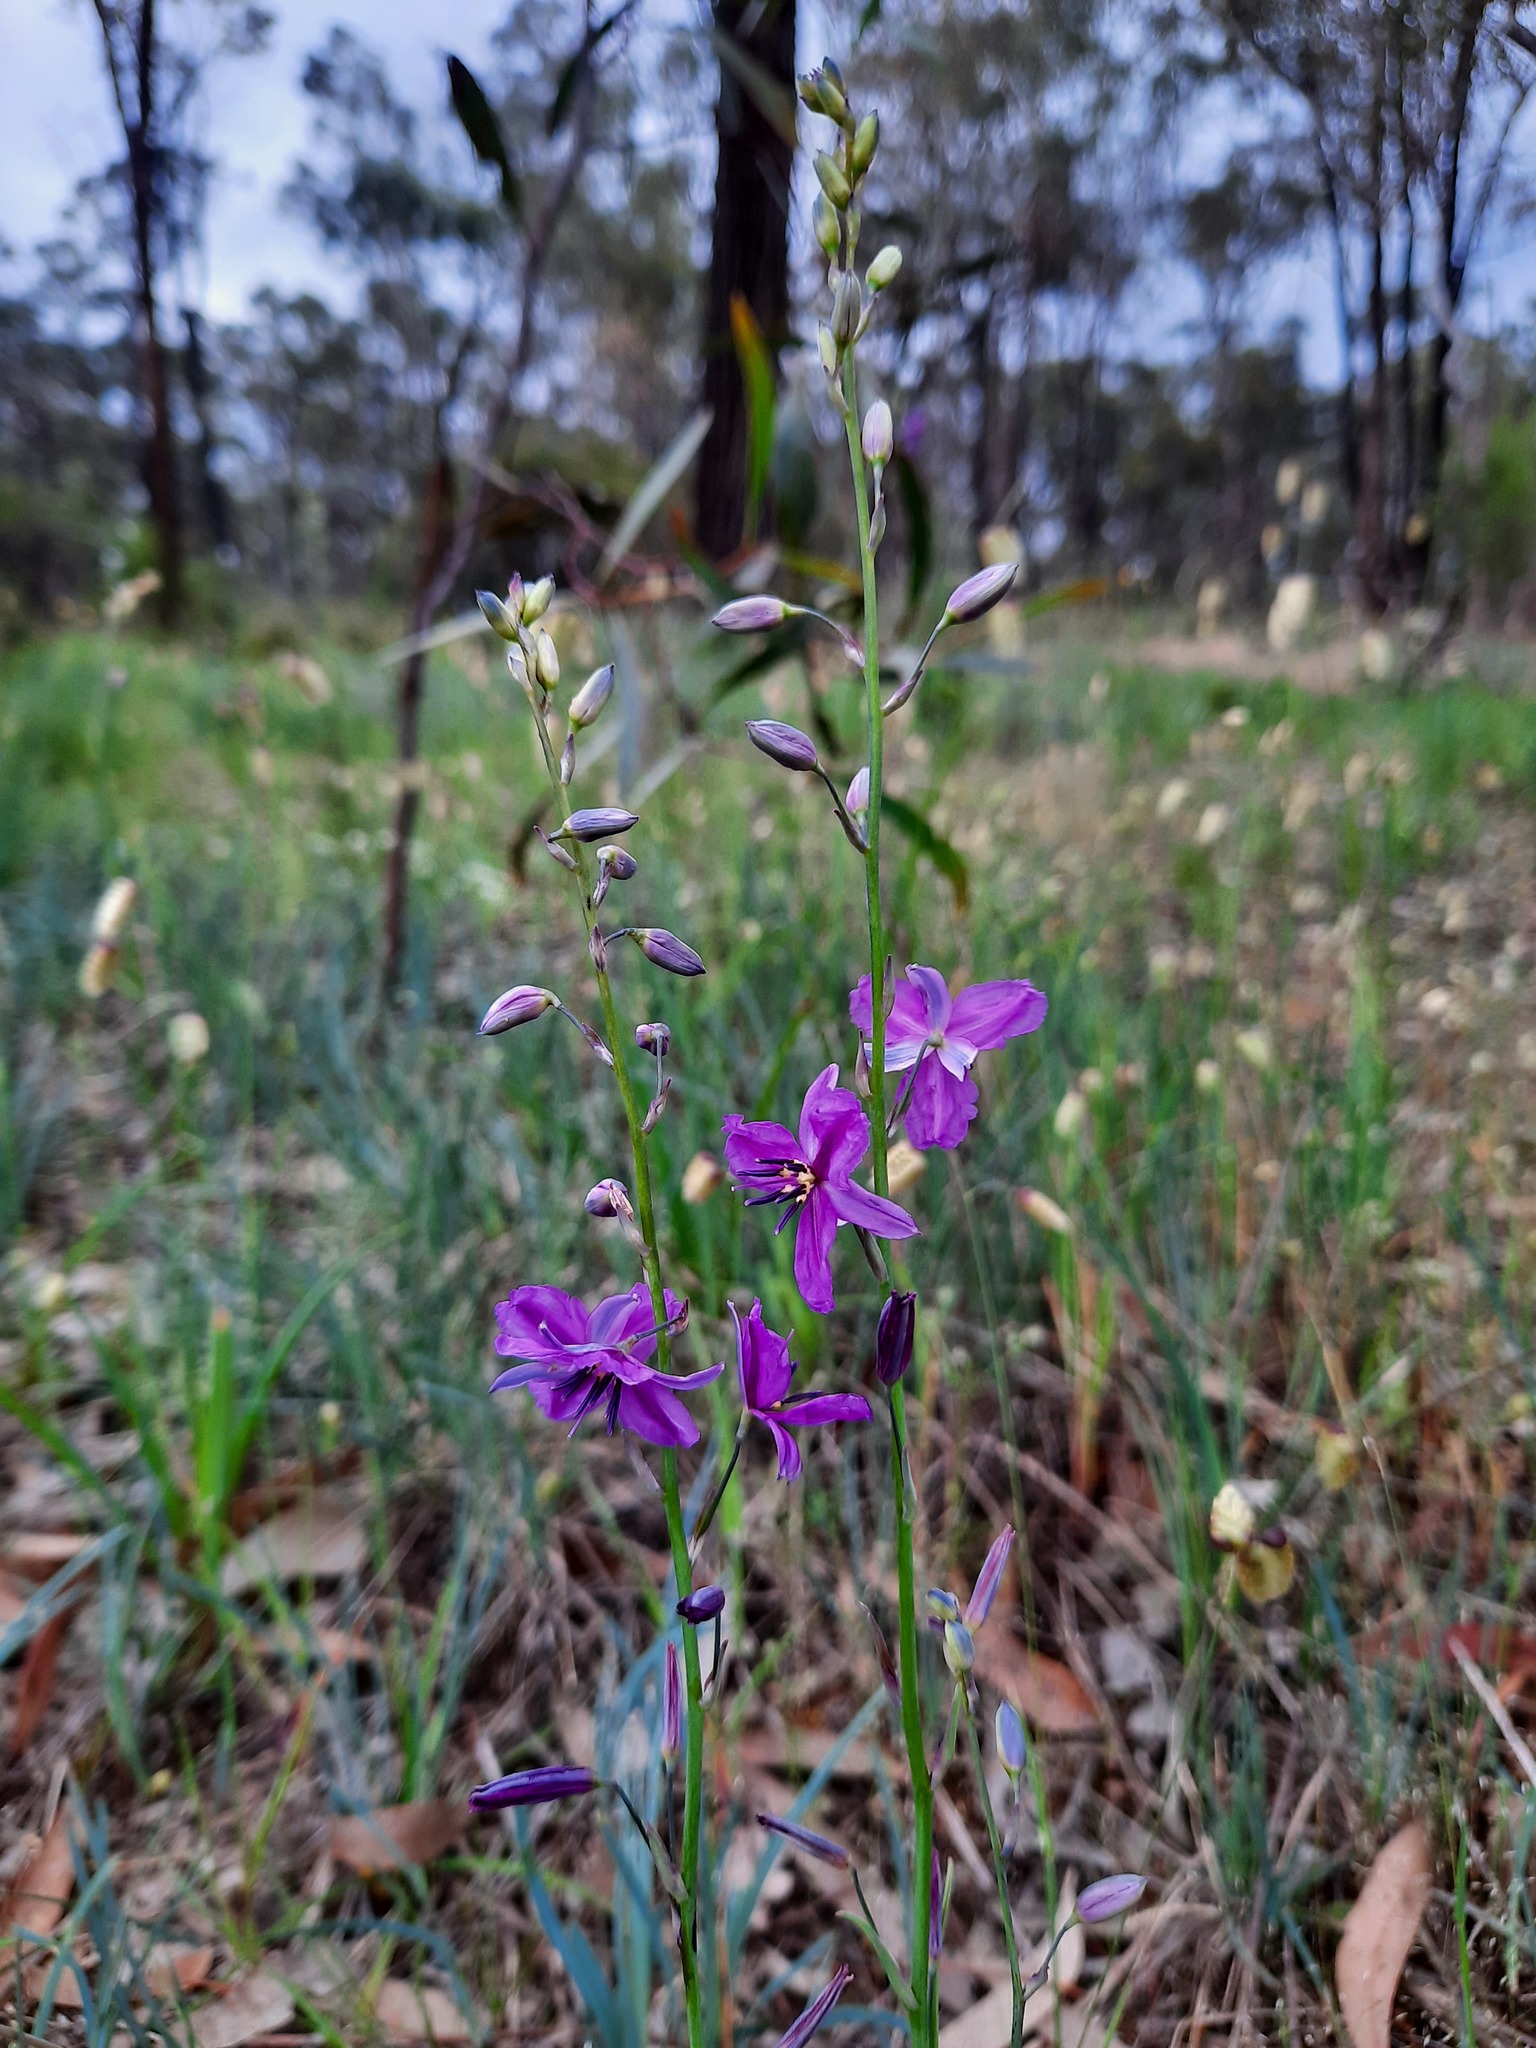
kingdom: Plantae
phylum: Tracheophyta
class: Liliopsida
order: Asparagales
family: Asparagaceae
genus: Arthropodium
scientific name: Arthropodium strictum
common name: Chocolate-lily
